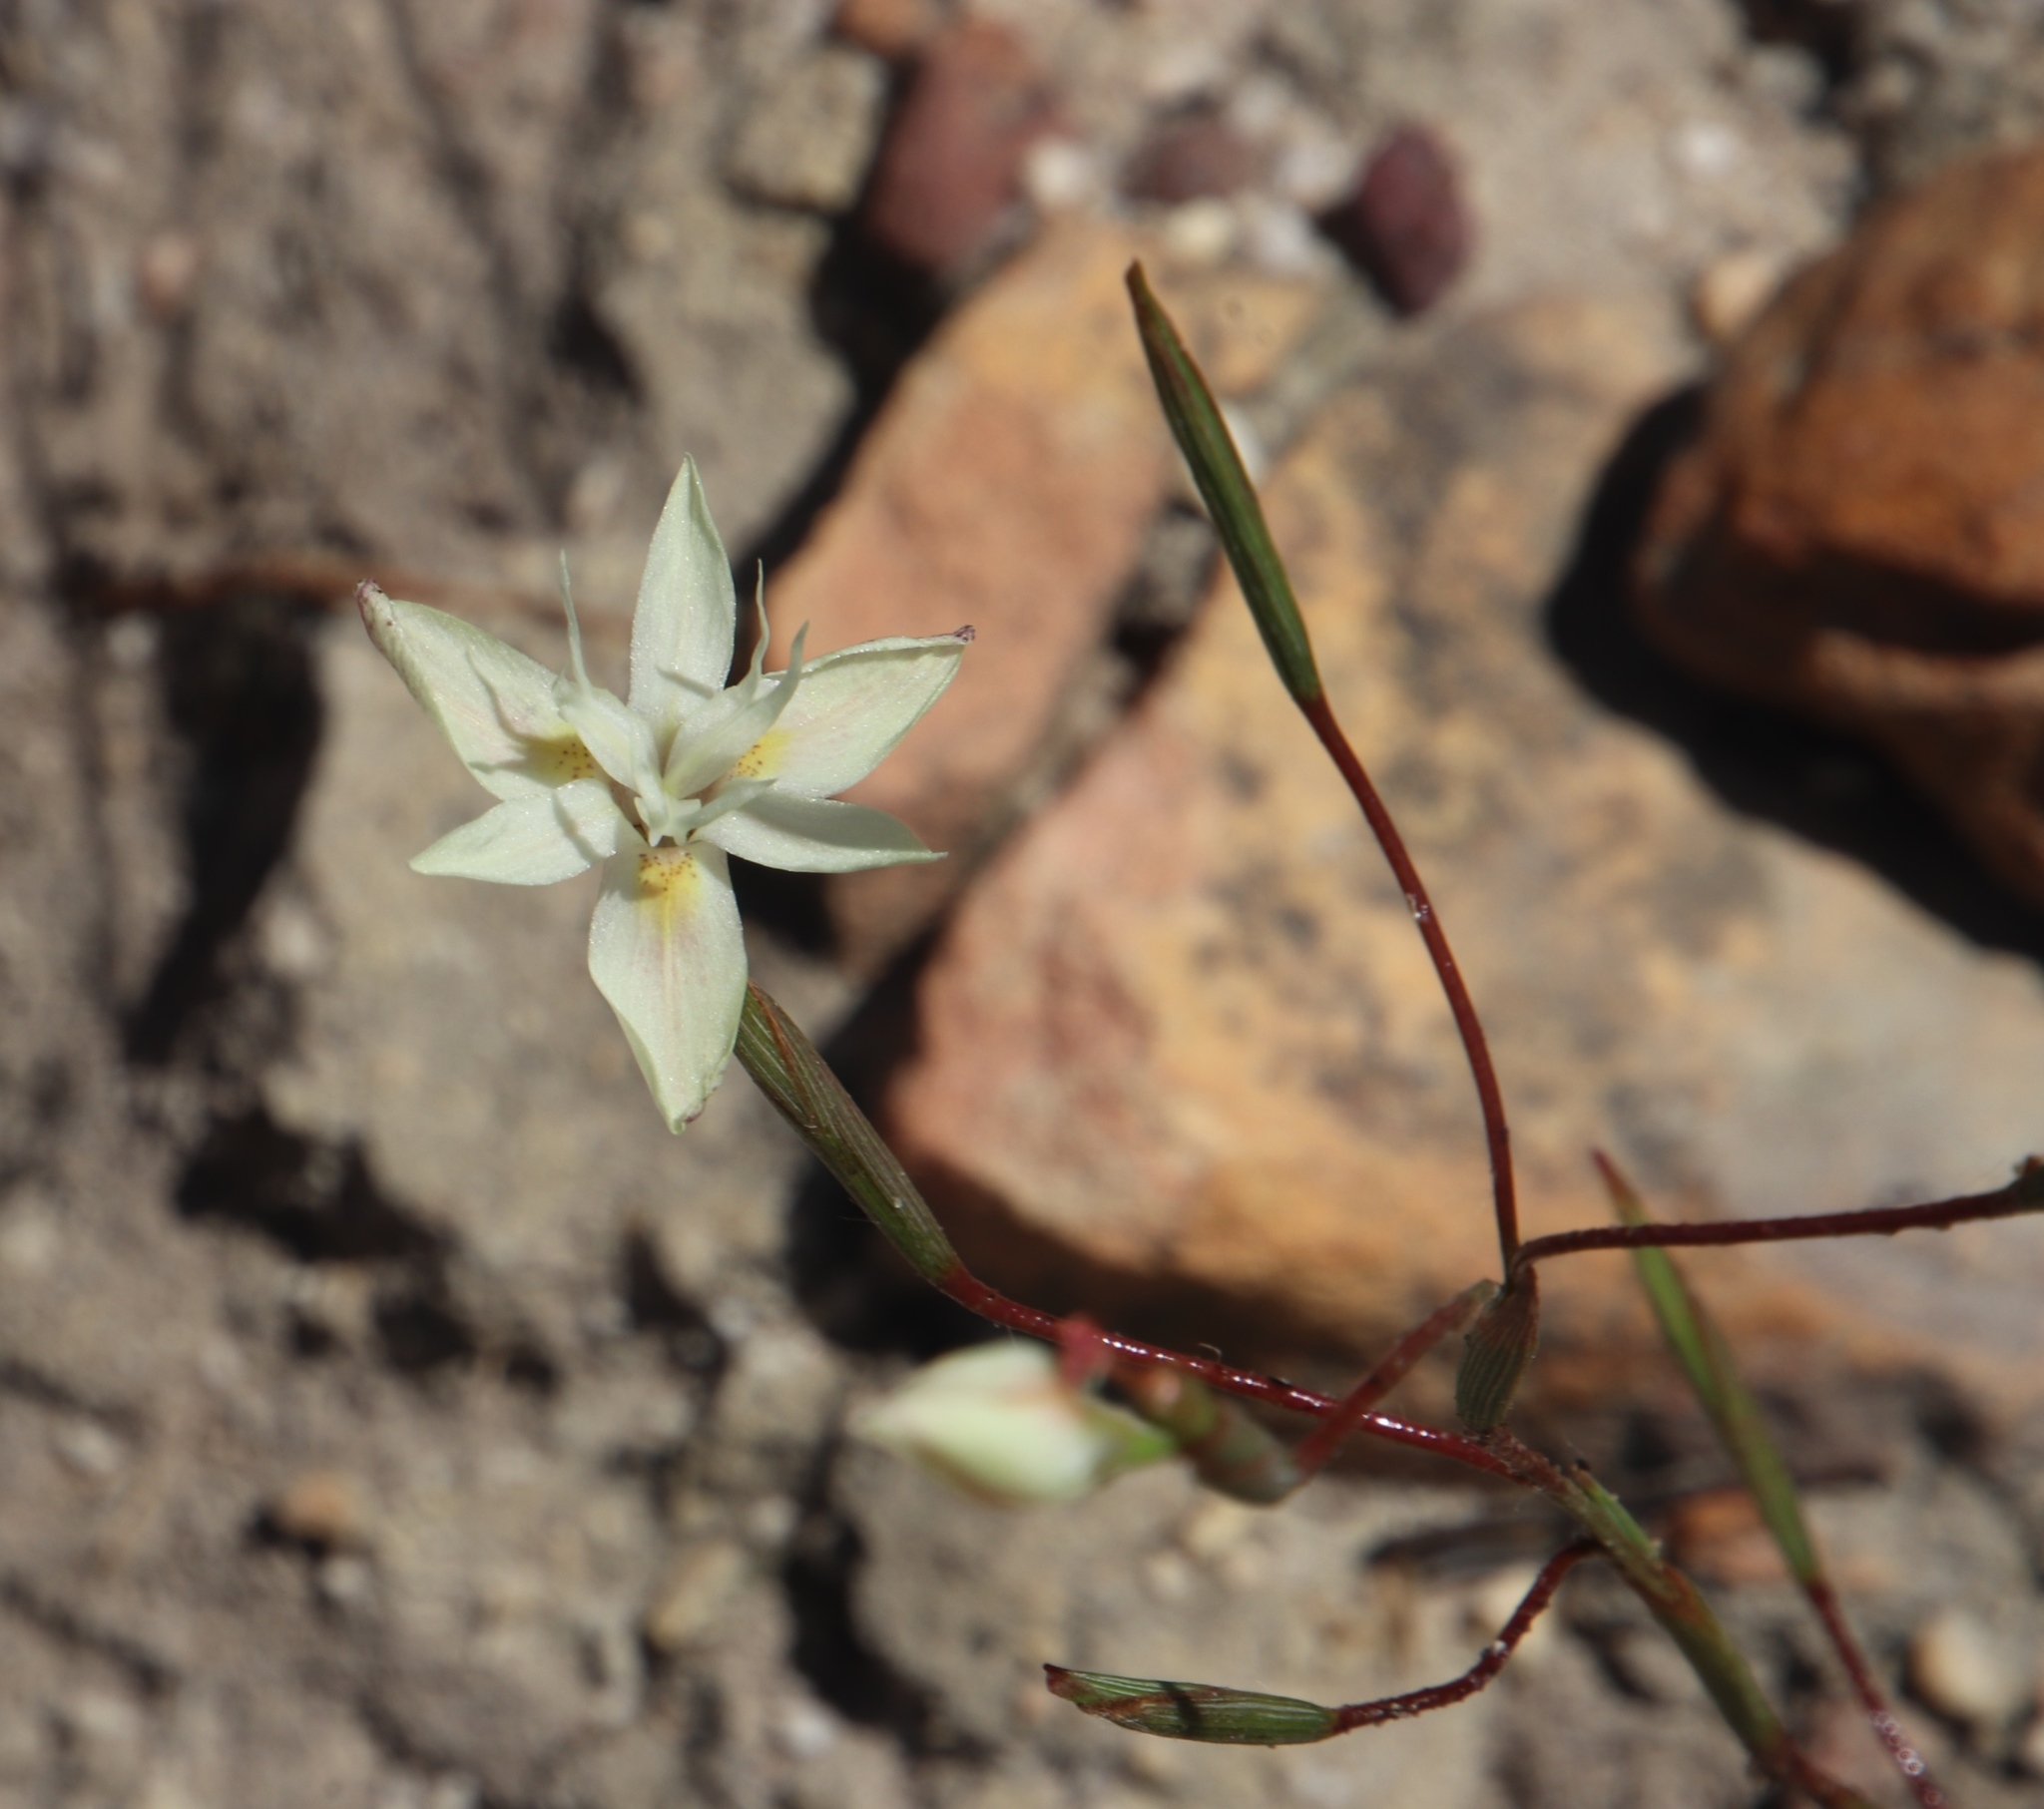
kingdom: Plantae
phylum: Tracheophyta
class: Liliopsida
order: Asparagales
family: Iridaceae
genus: Moraea
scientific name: Moraea viscaria
